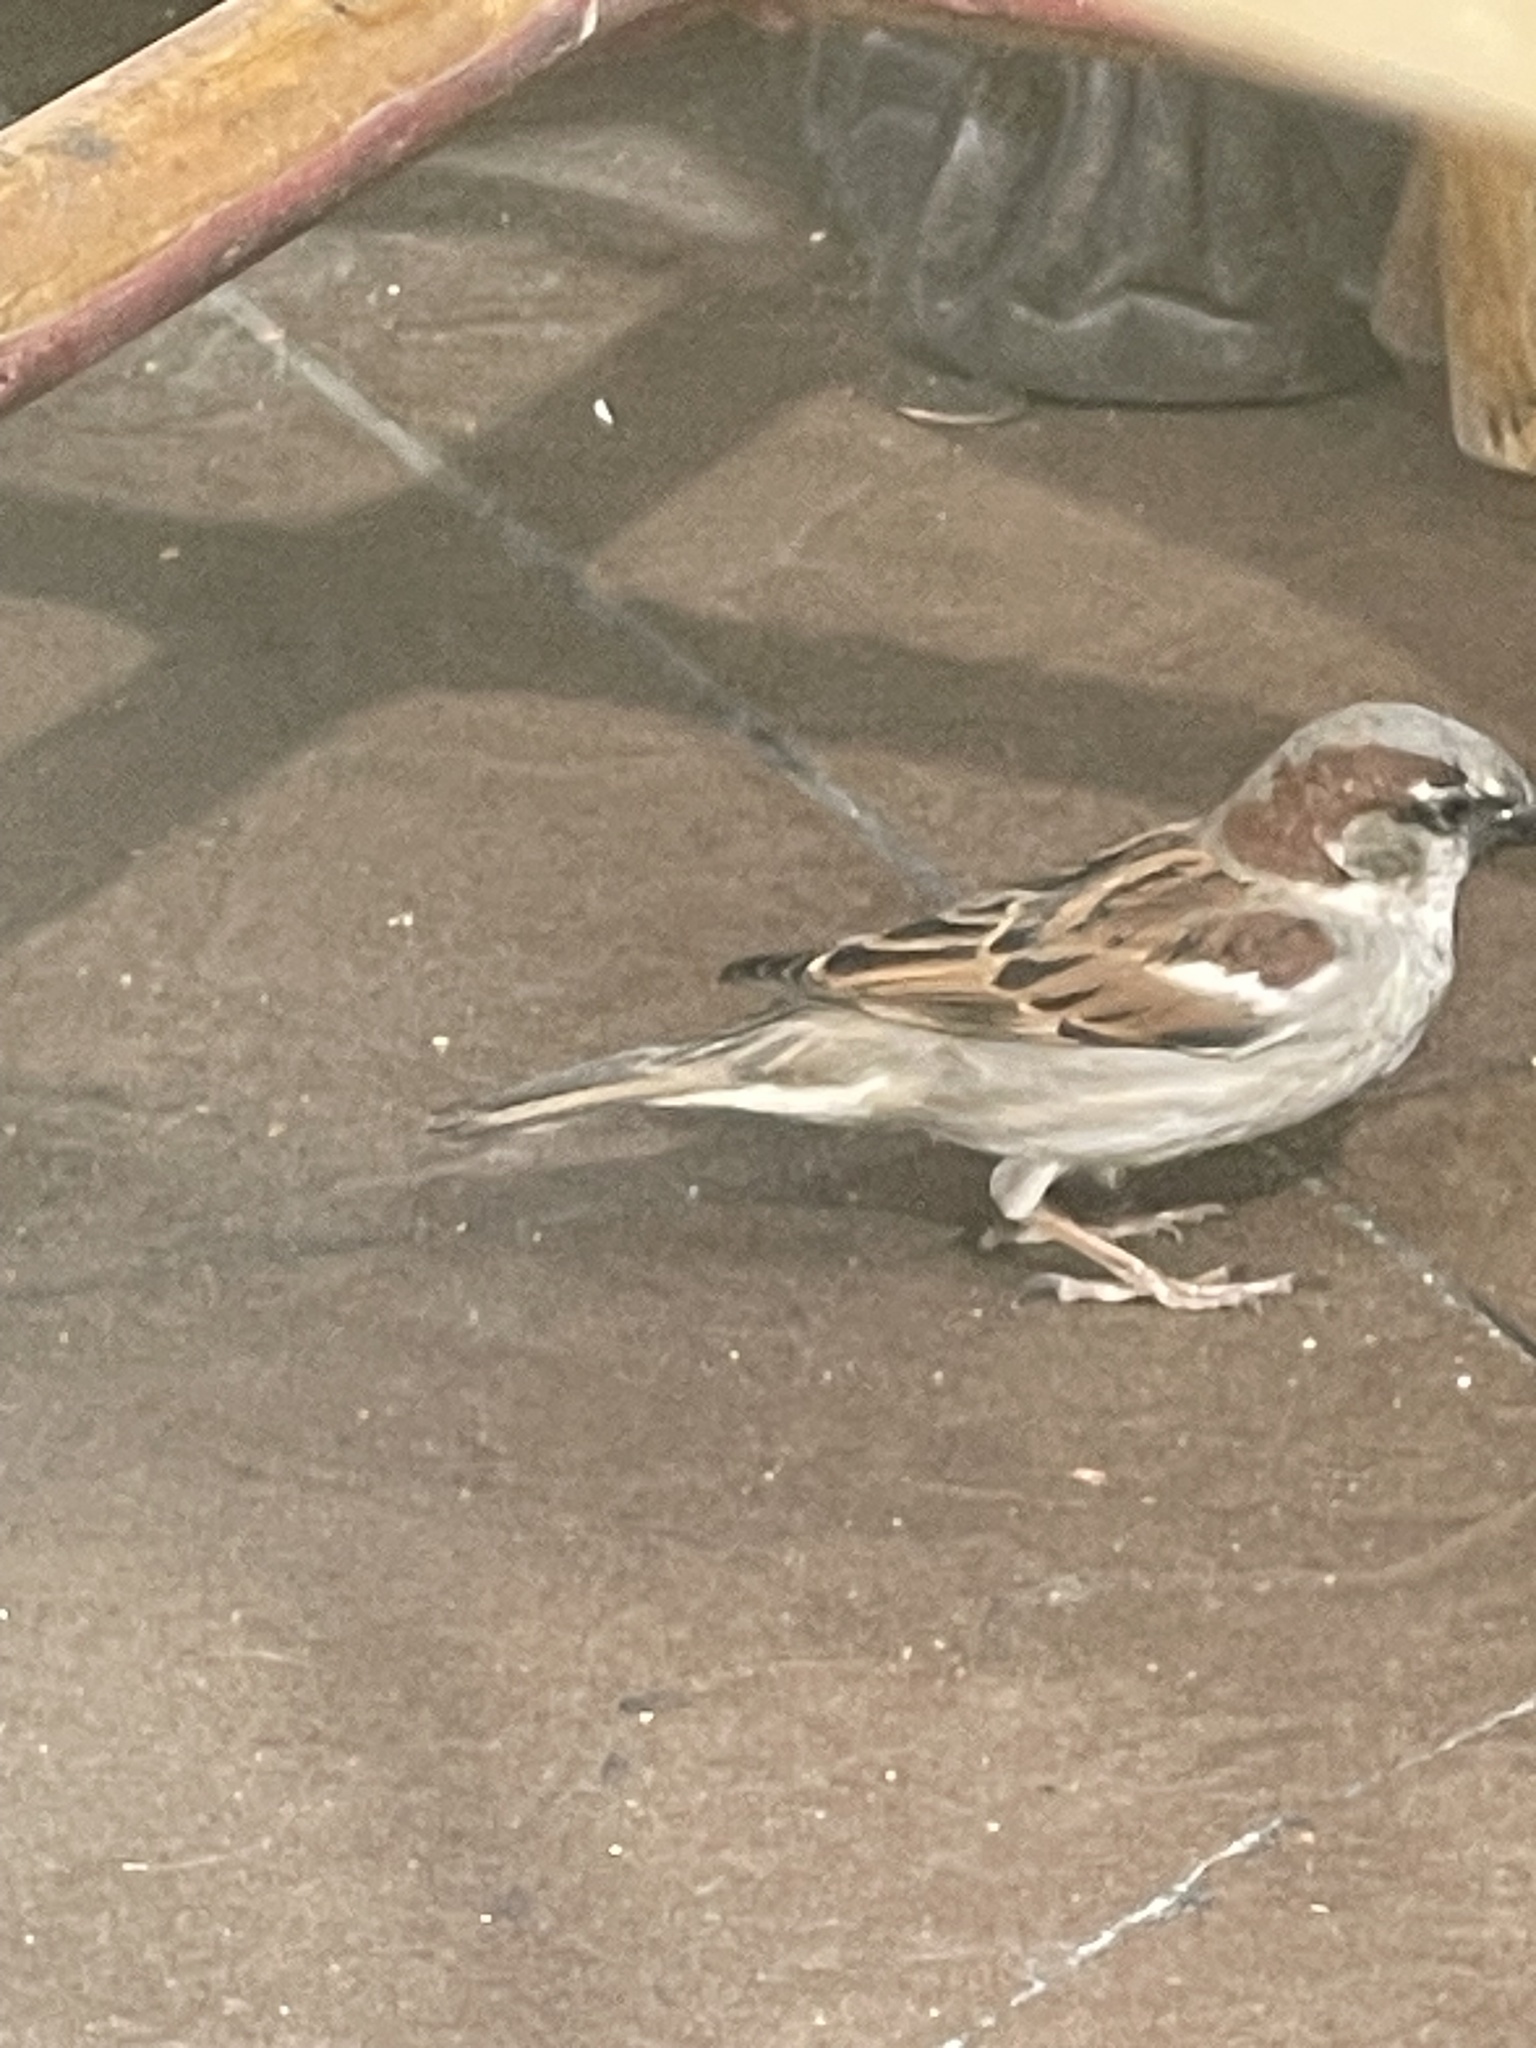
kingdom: Animalia
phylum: Chordata
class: Aves
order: Passeriformes
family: Passeridae
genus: Passer
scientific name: Passer domesticus
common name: House sparrow
